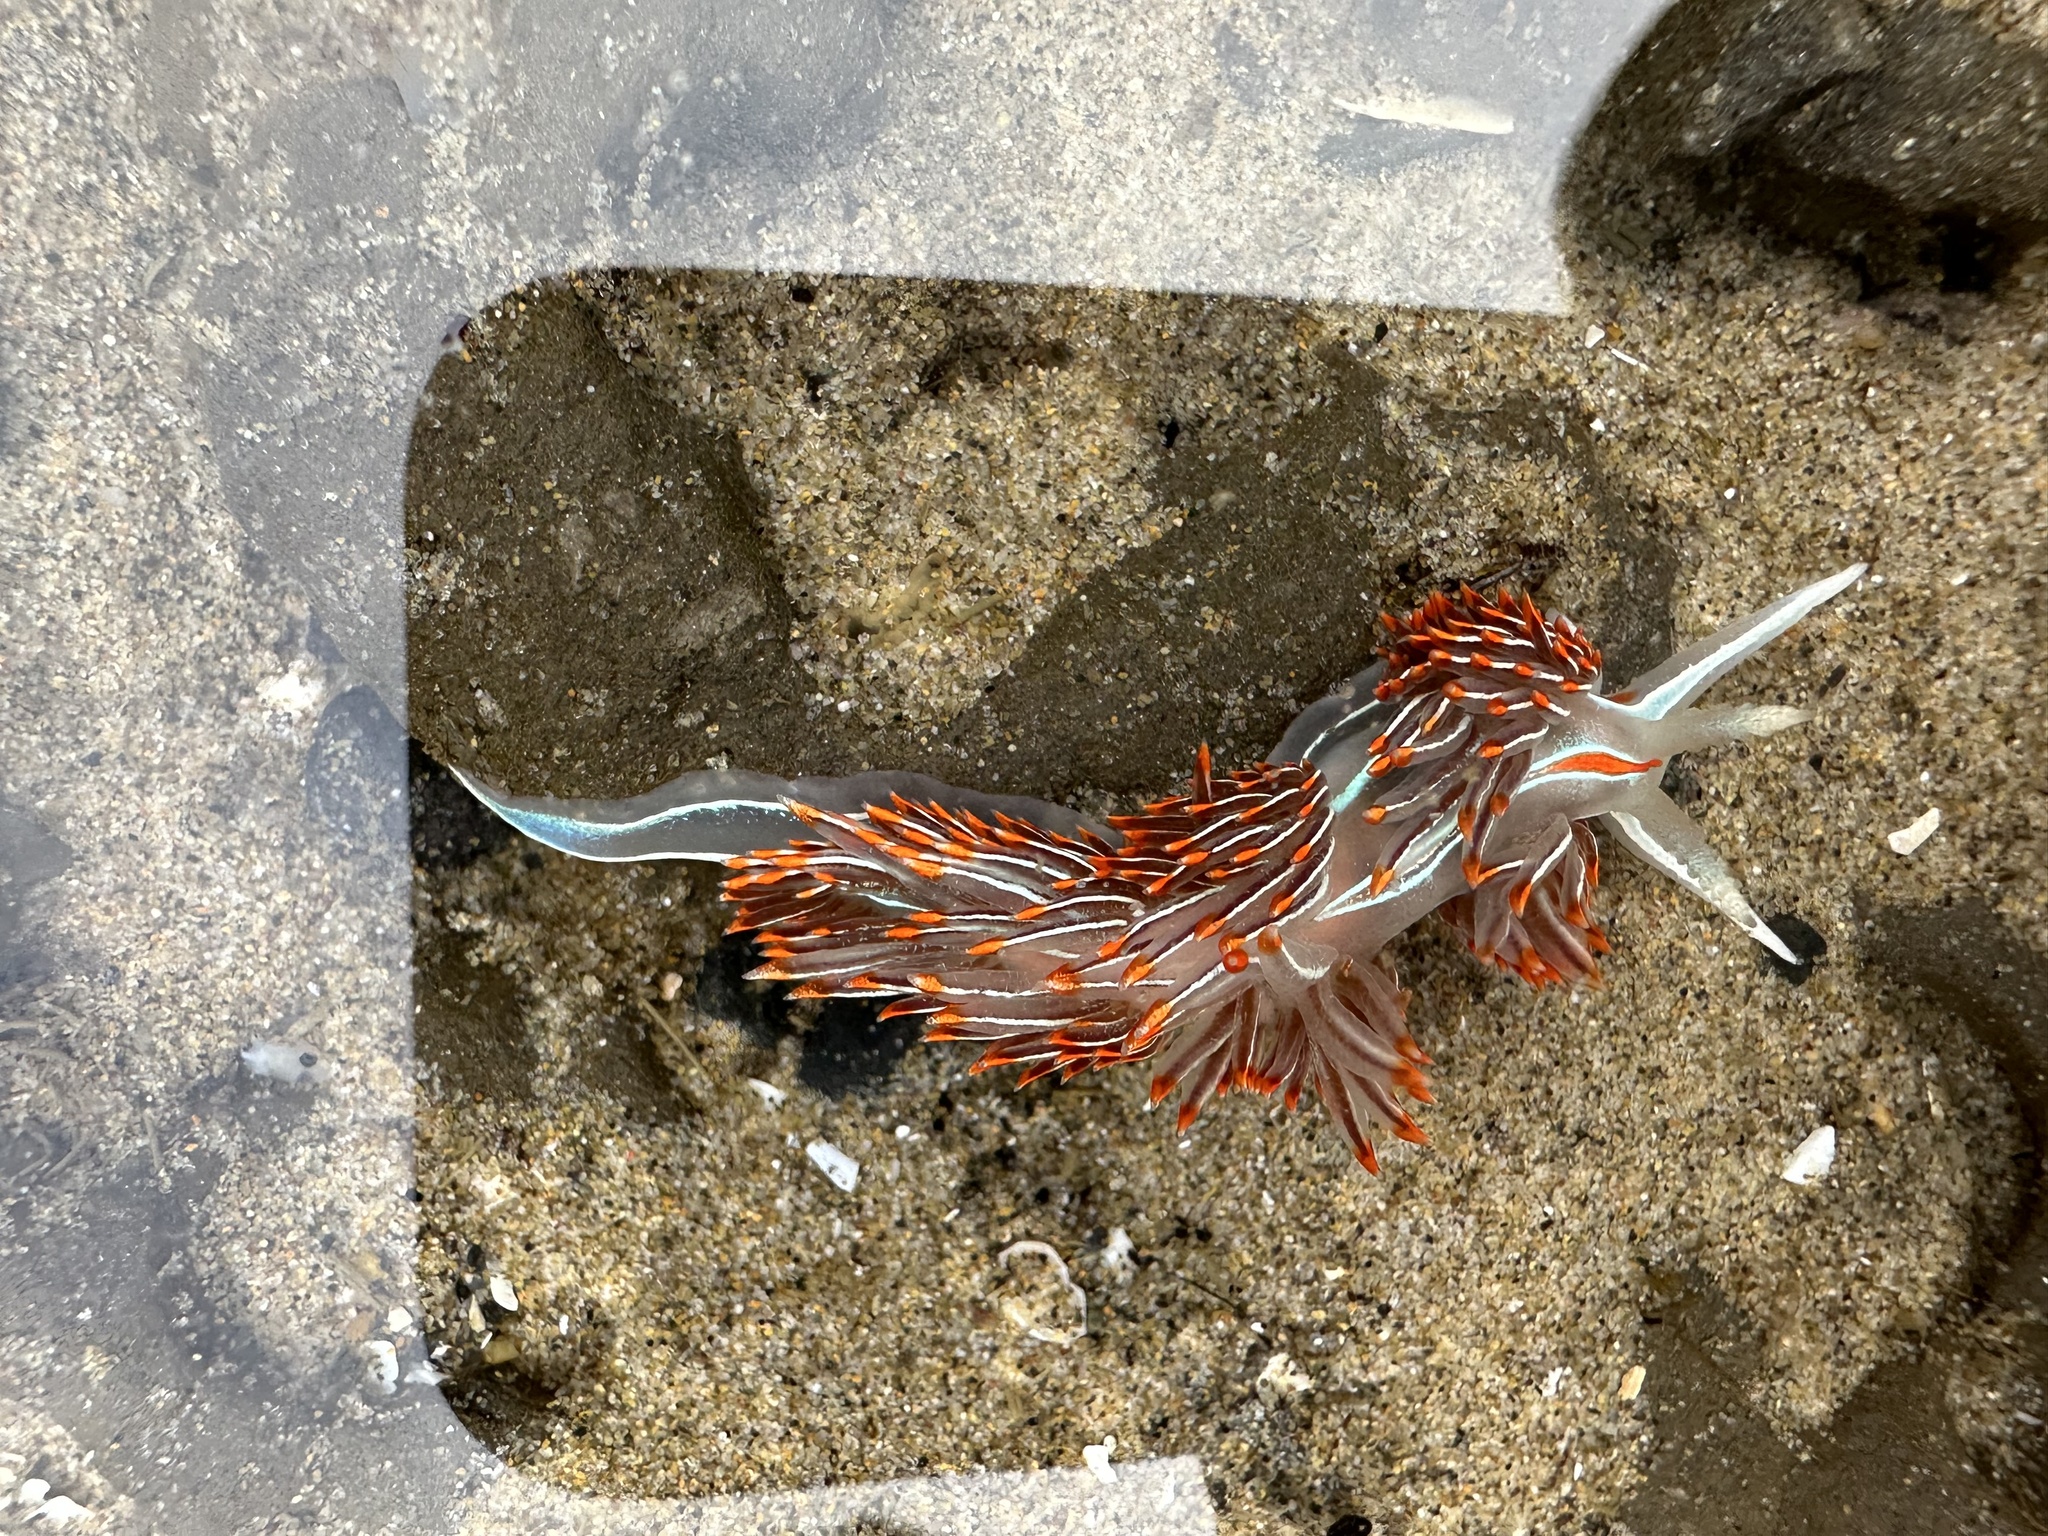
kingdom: Animalia
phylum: Mollusca
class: Gastropoda
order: Nudibranchia
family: Myrrhinidae
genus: Hermissenda
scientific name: Hermissenda crassicornis
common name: Hermissenda
